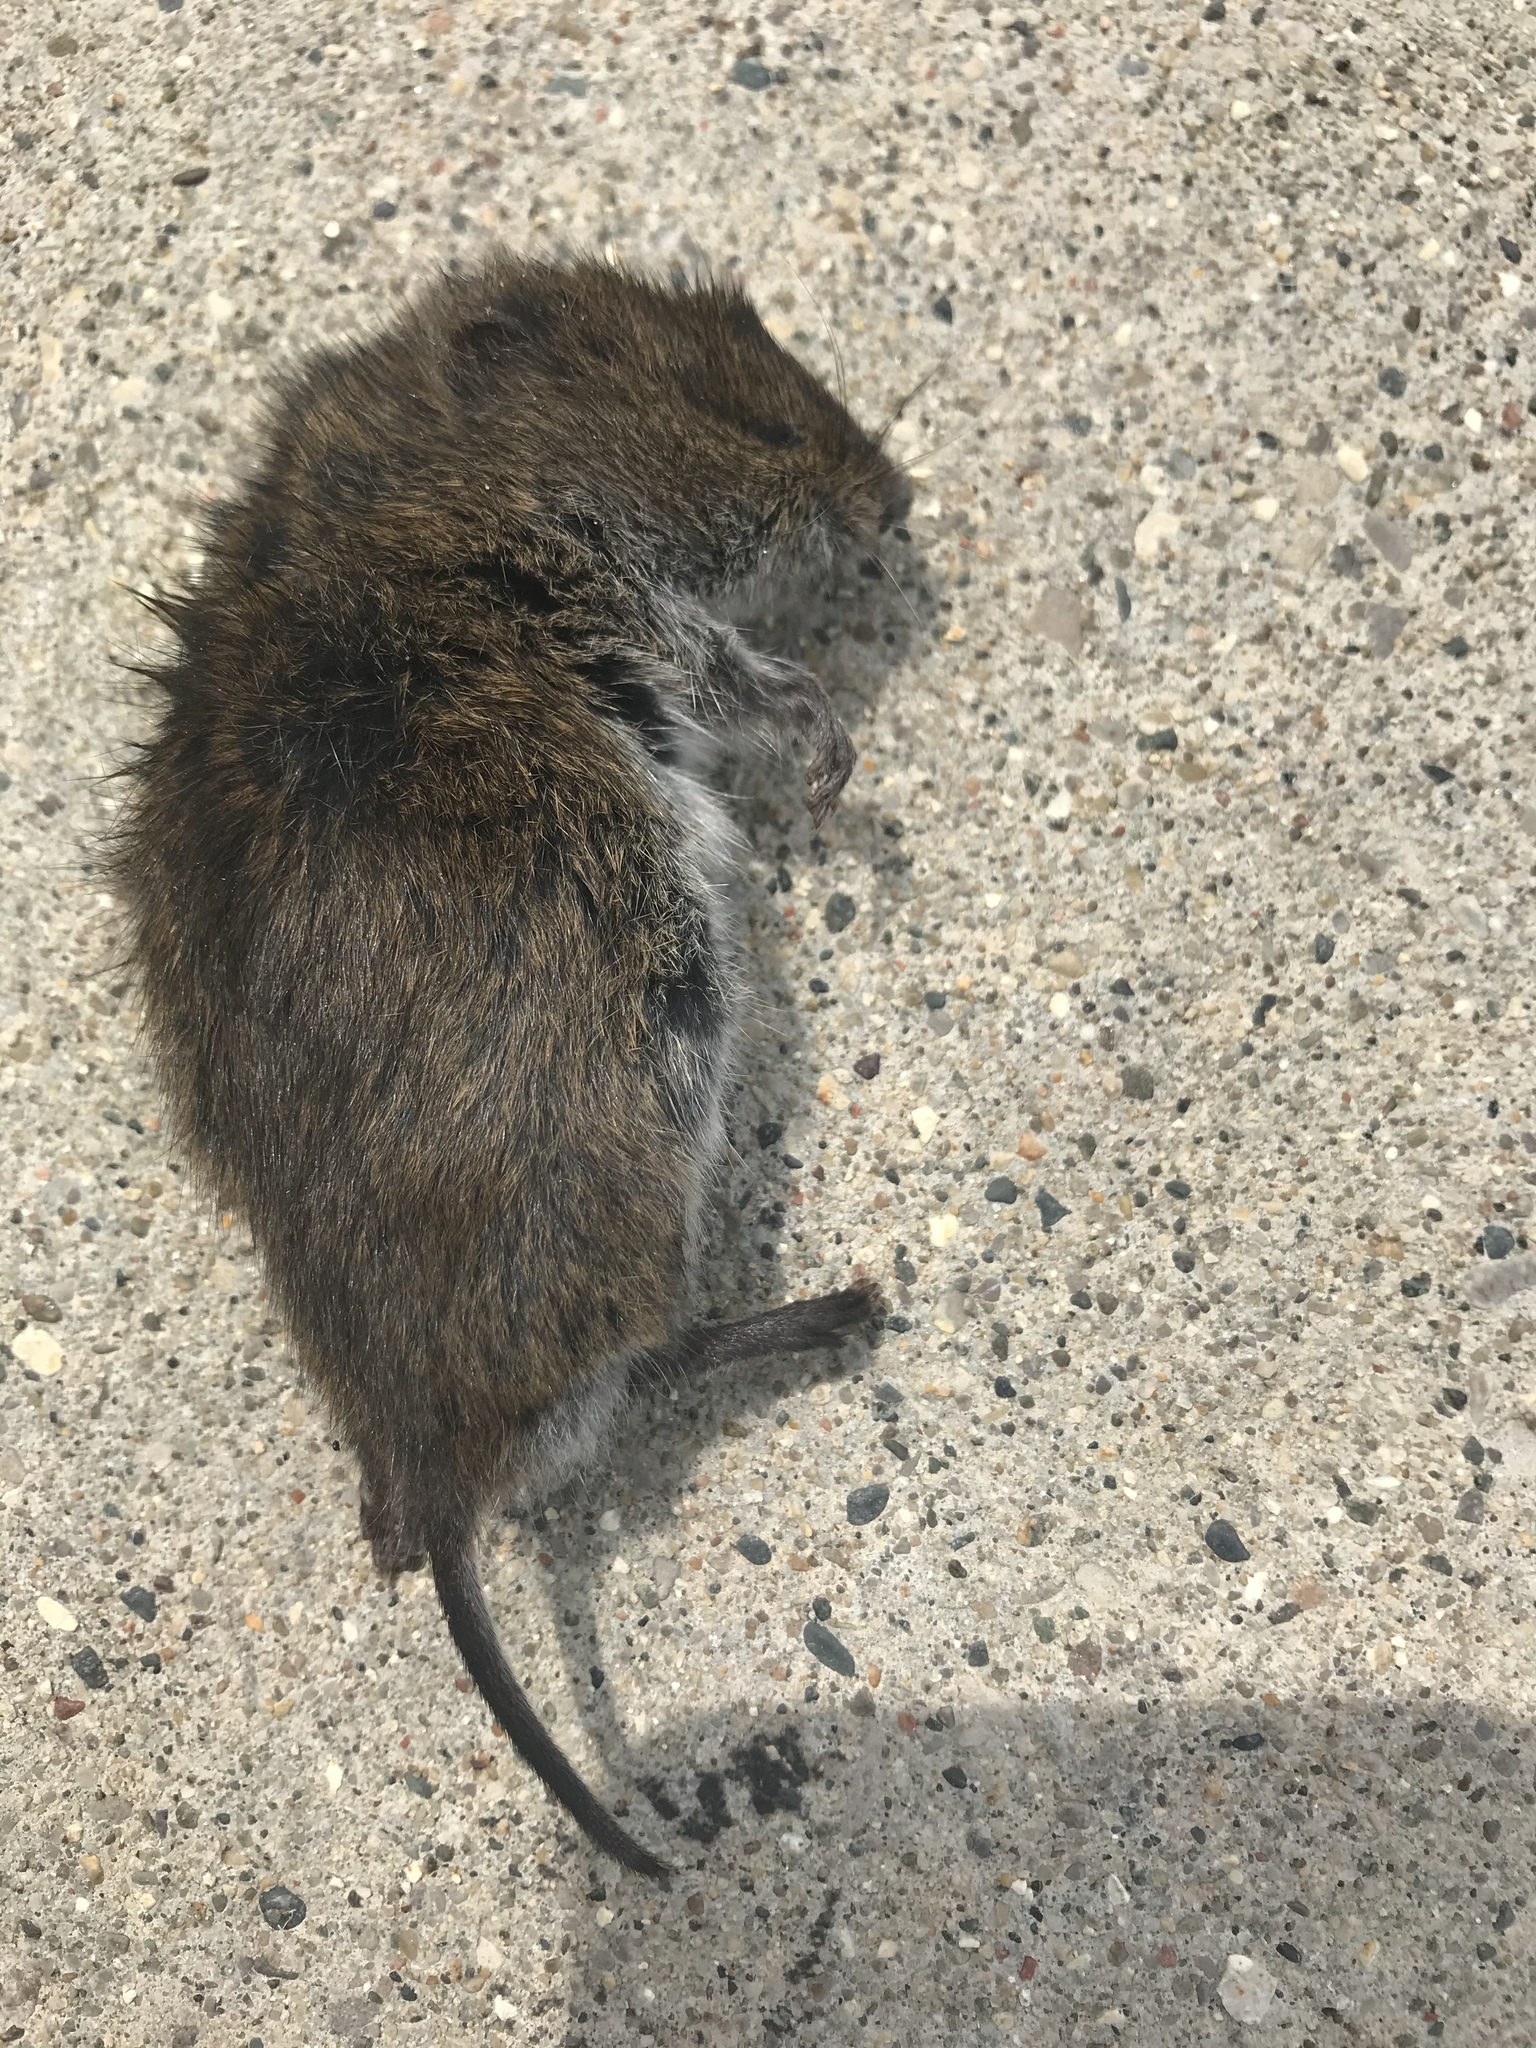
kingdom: Animalia
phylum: Chordata
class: Mammalia
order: Rodentia
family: Cricetidae
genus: Microtus
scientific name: Microtus pennsylvanicus
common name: Meadow vole
